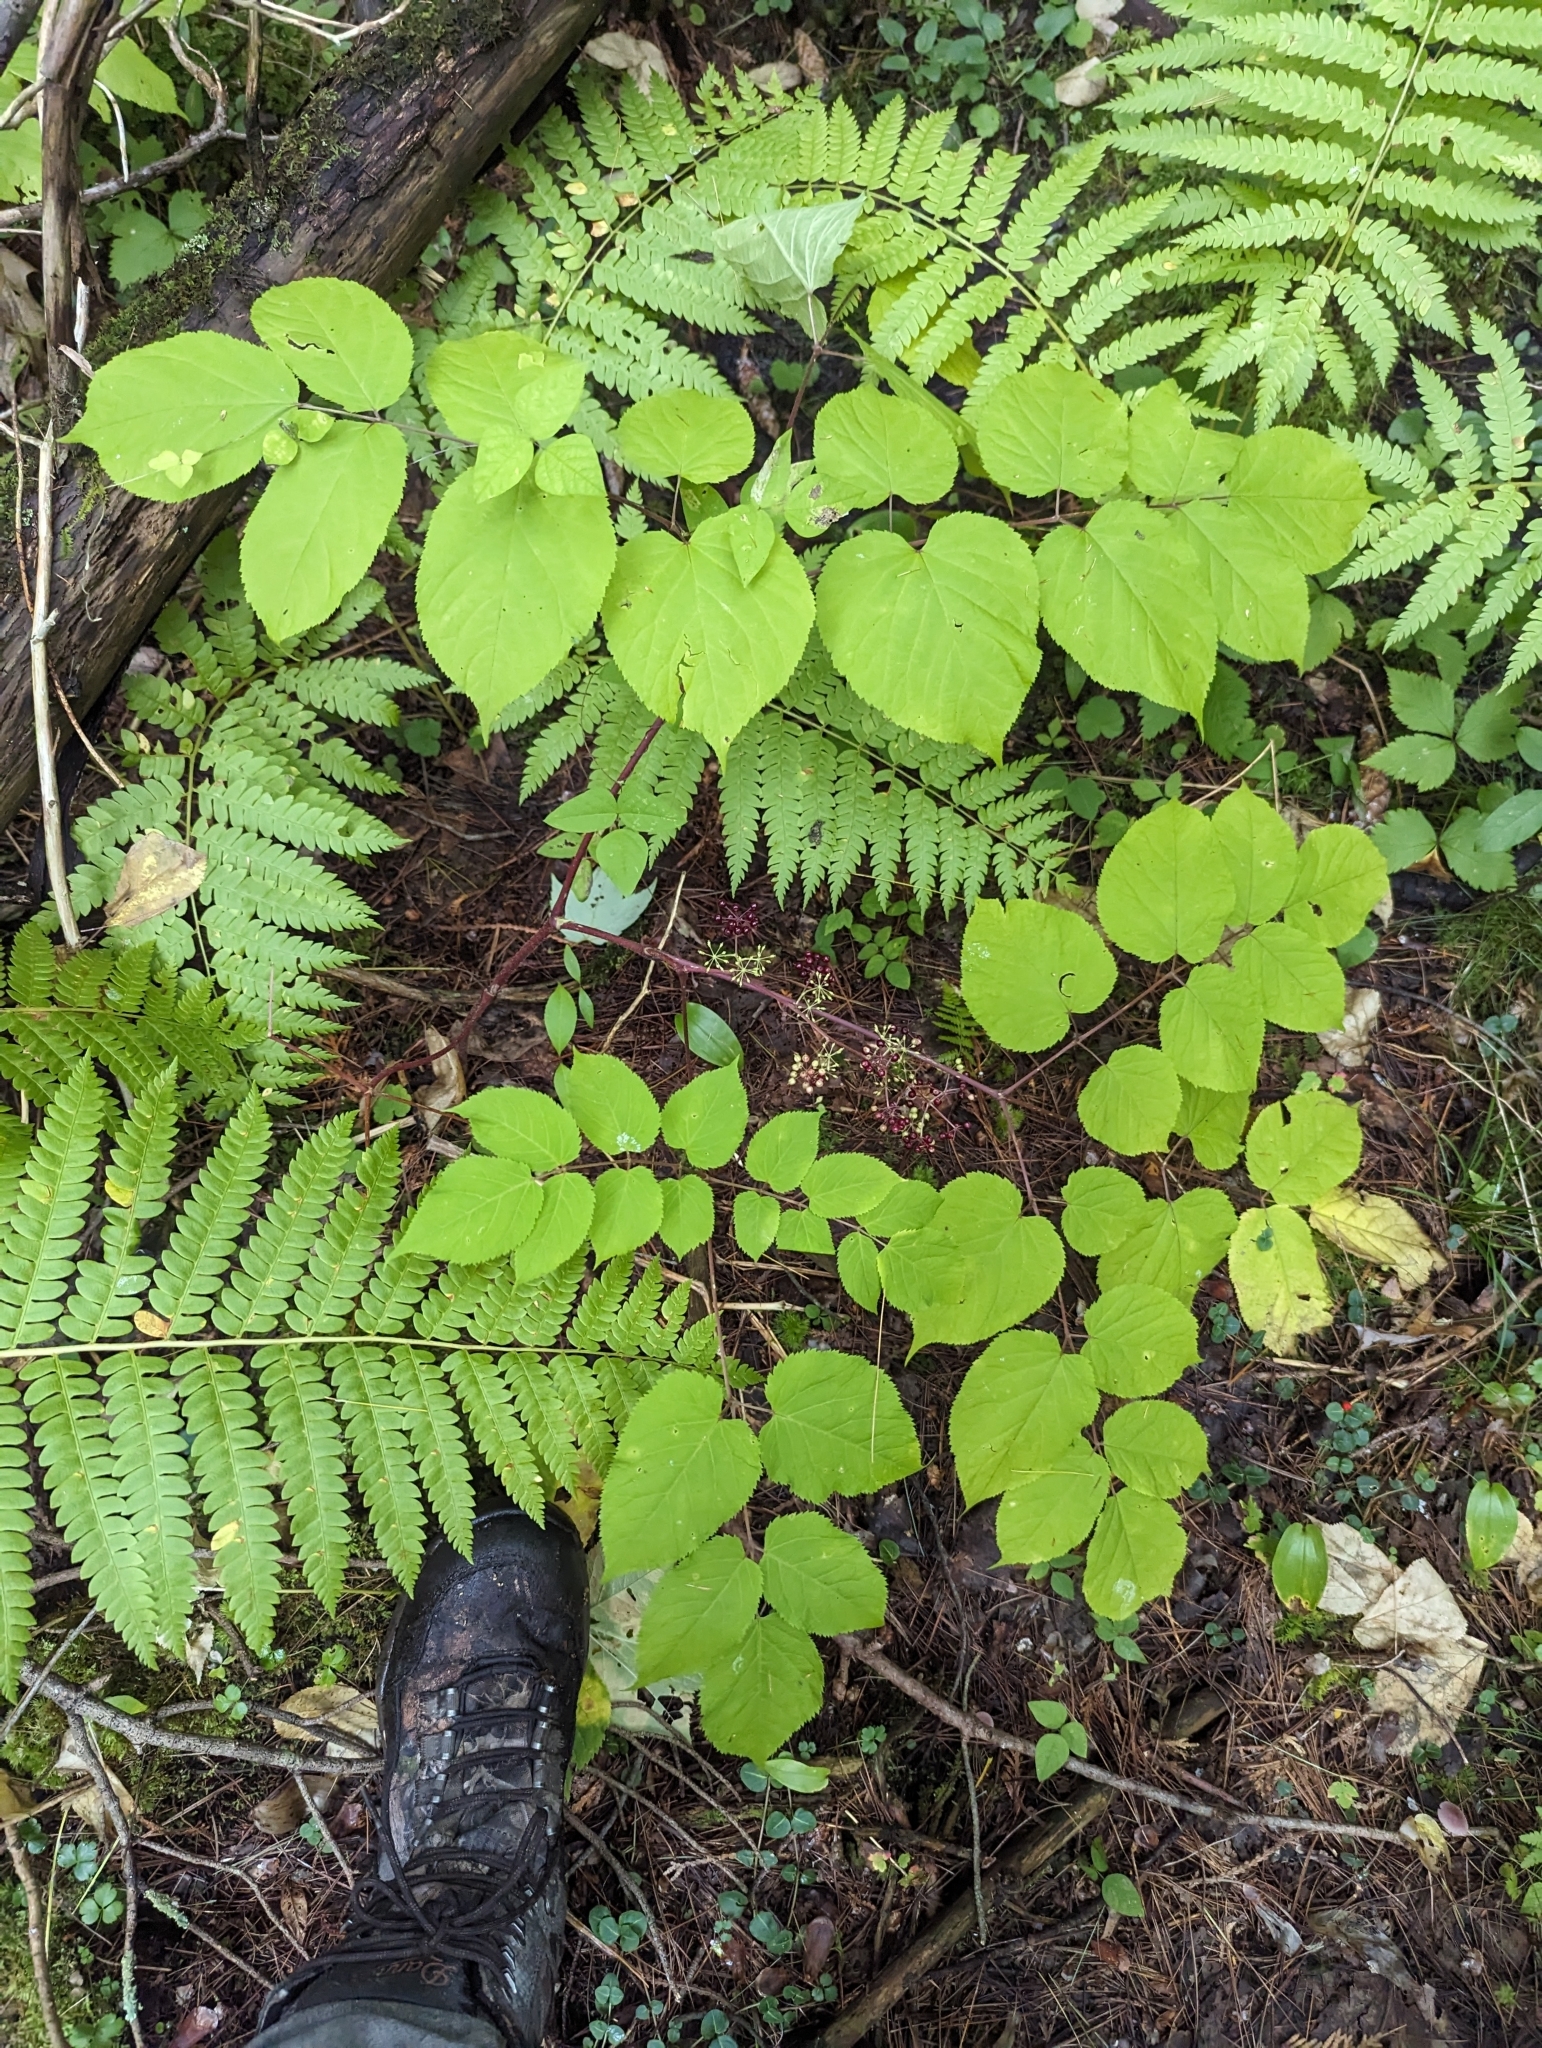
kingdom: Plantae
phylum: Tracheophyta
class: Magnoliopsida
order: Apiales
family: Araliaceae
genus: Aralia
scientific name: Aralia racemosa
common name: American-spikenard
